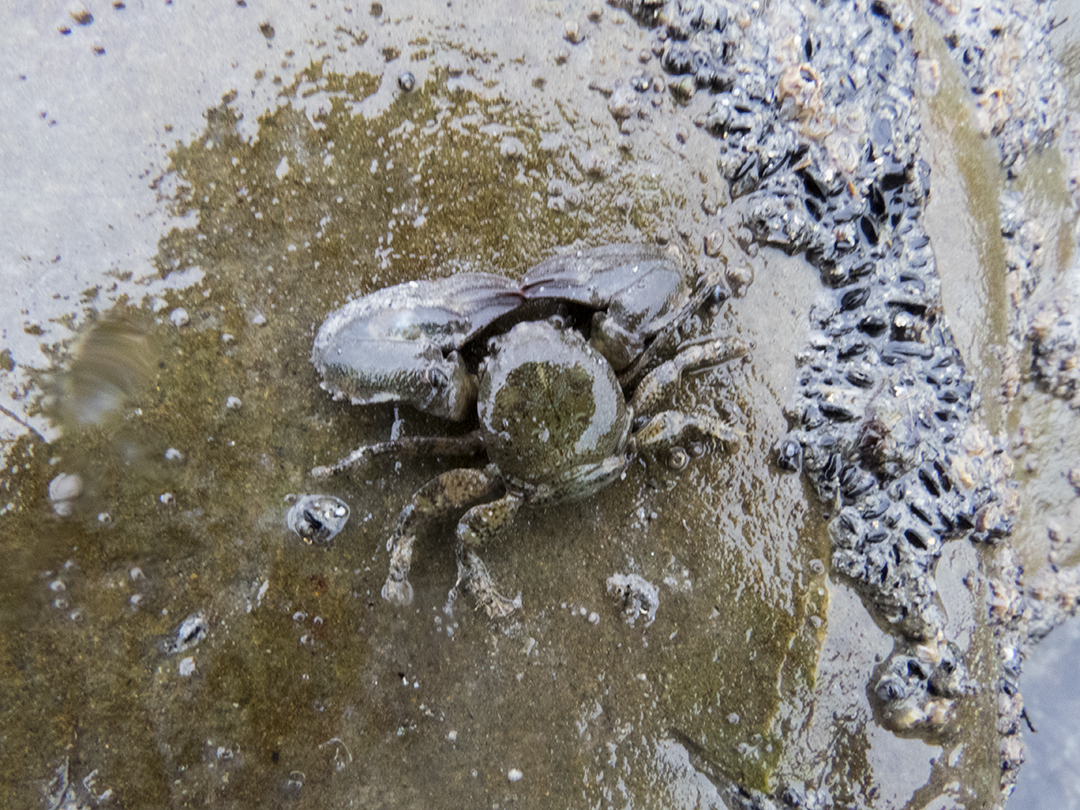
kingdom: Animalia
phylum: Arthropoda
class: Malacostraca
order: Decapoda
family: Porcellanidae
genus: Petrolisthes
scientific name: Petrolisthes elongatus
